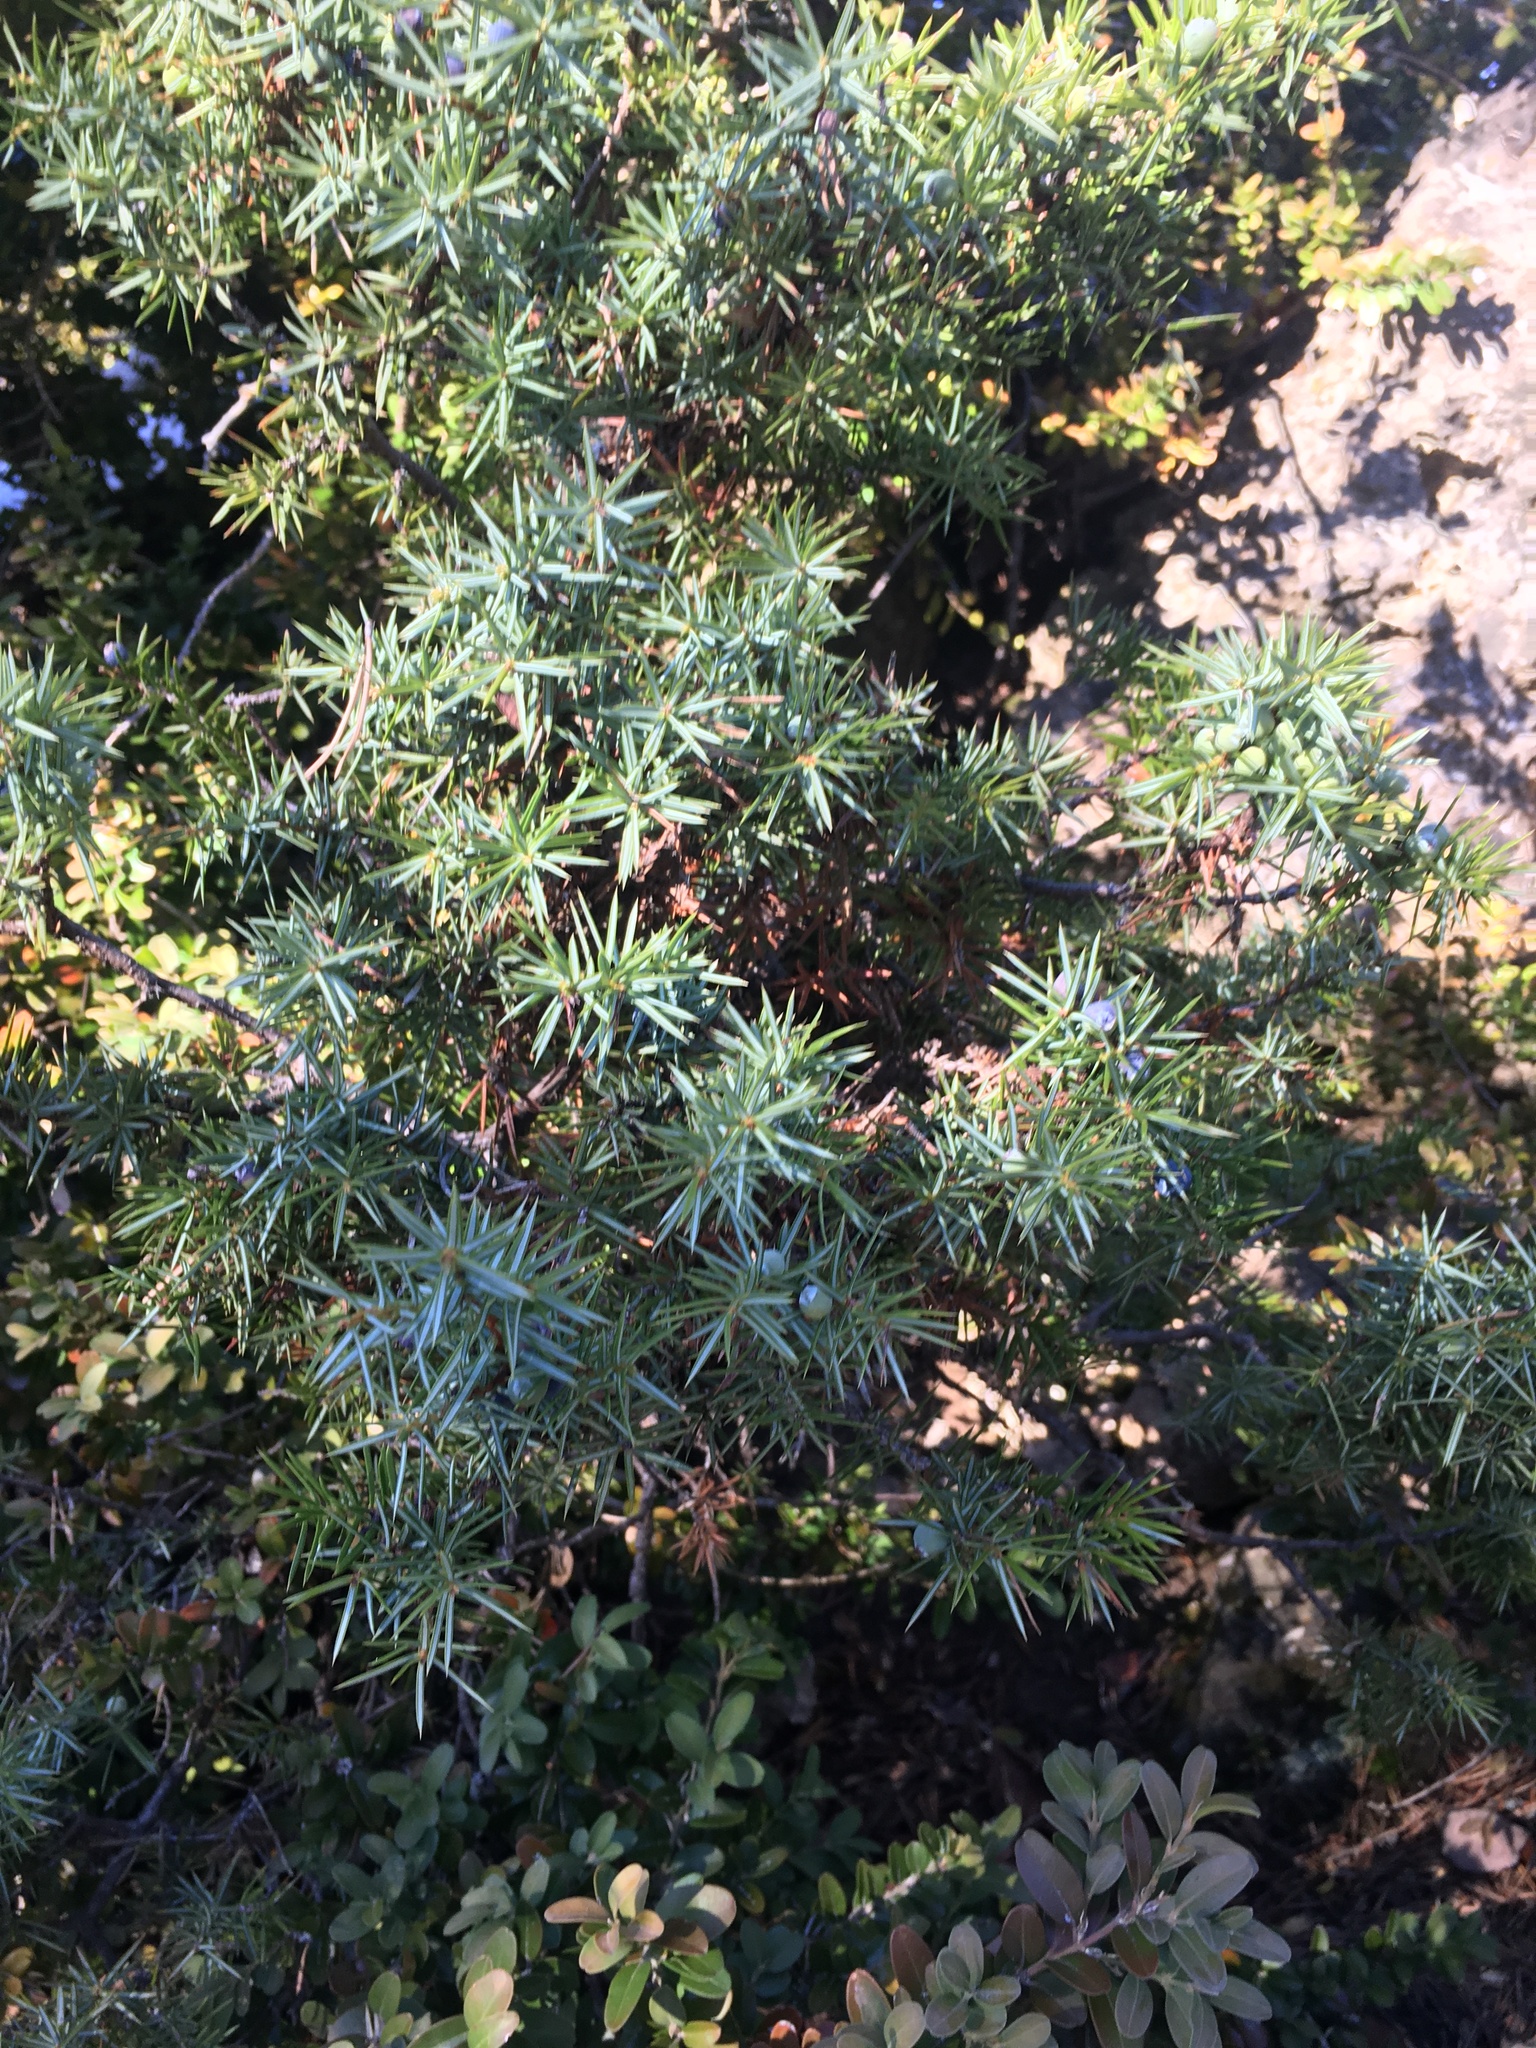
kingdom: Plantae
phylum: Tracheophyta
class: Pinopsida
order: Pinales
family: Cupressaceae
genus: Juniperus
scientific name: Juniperus communis
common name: Common juniper
